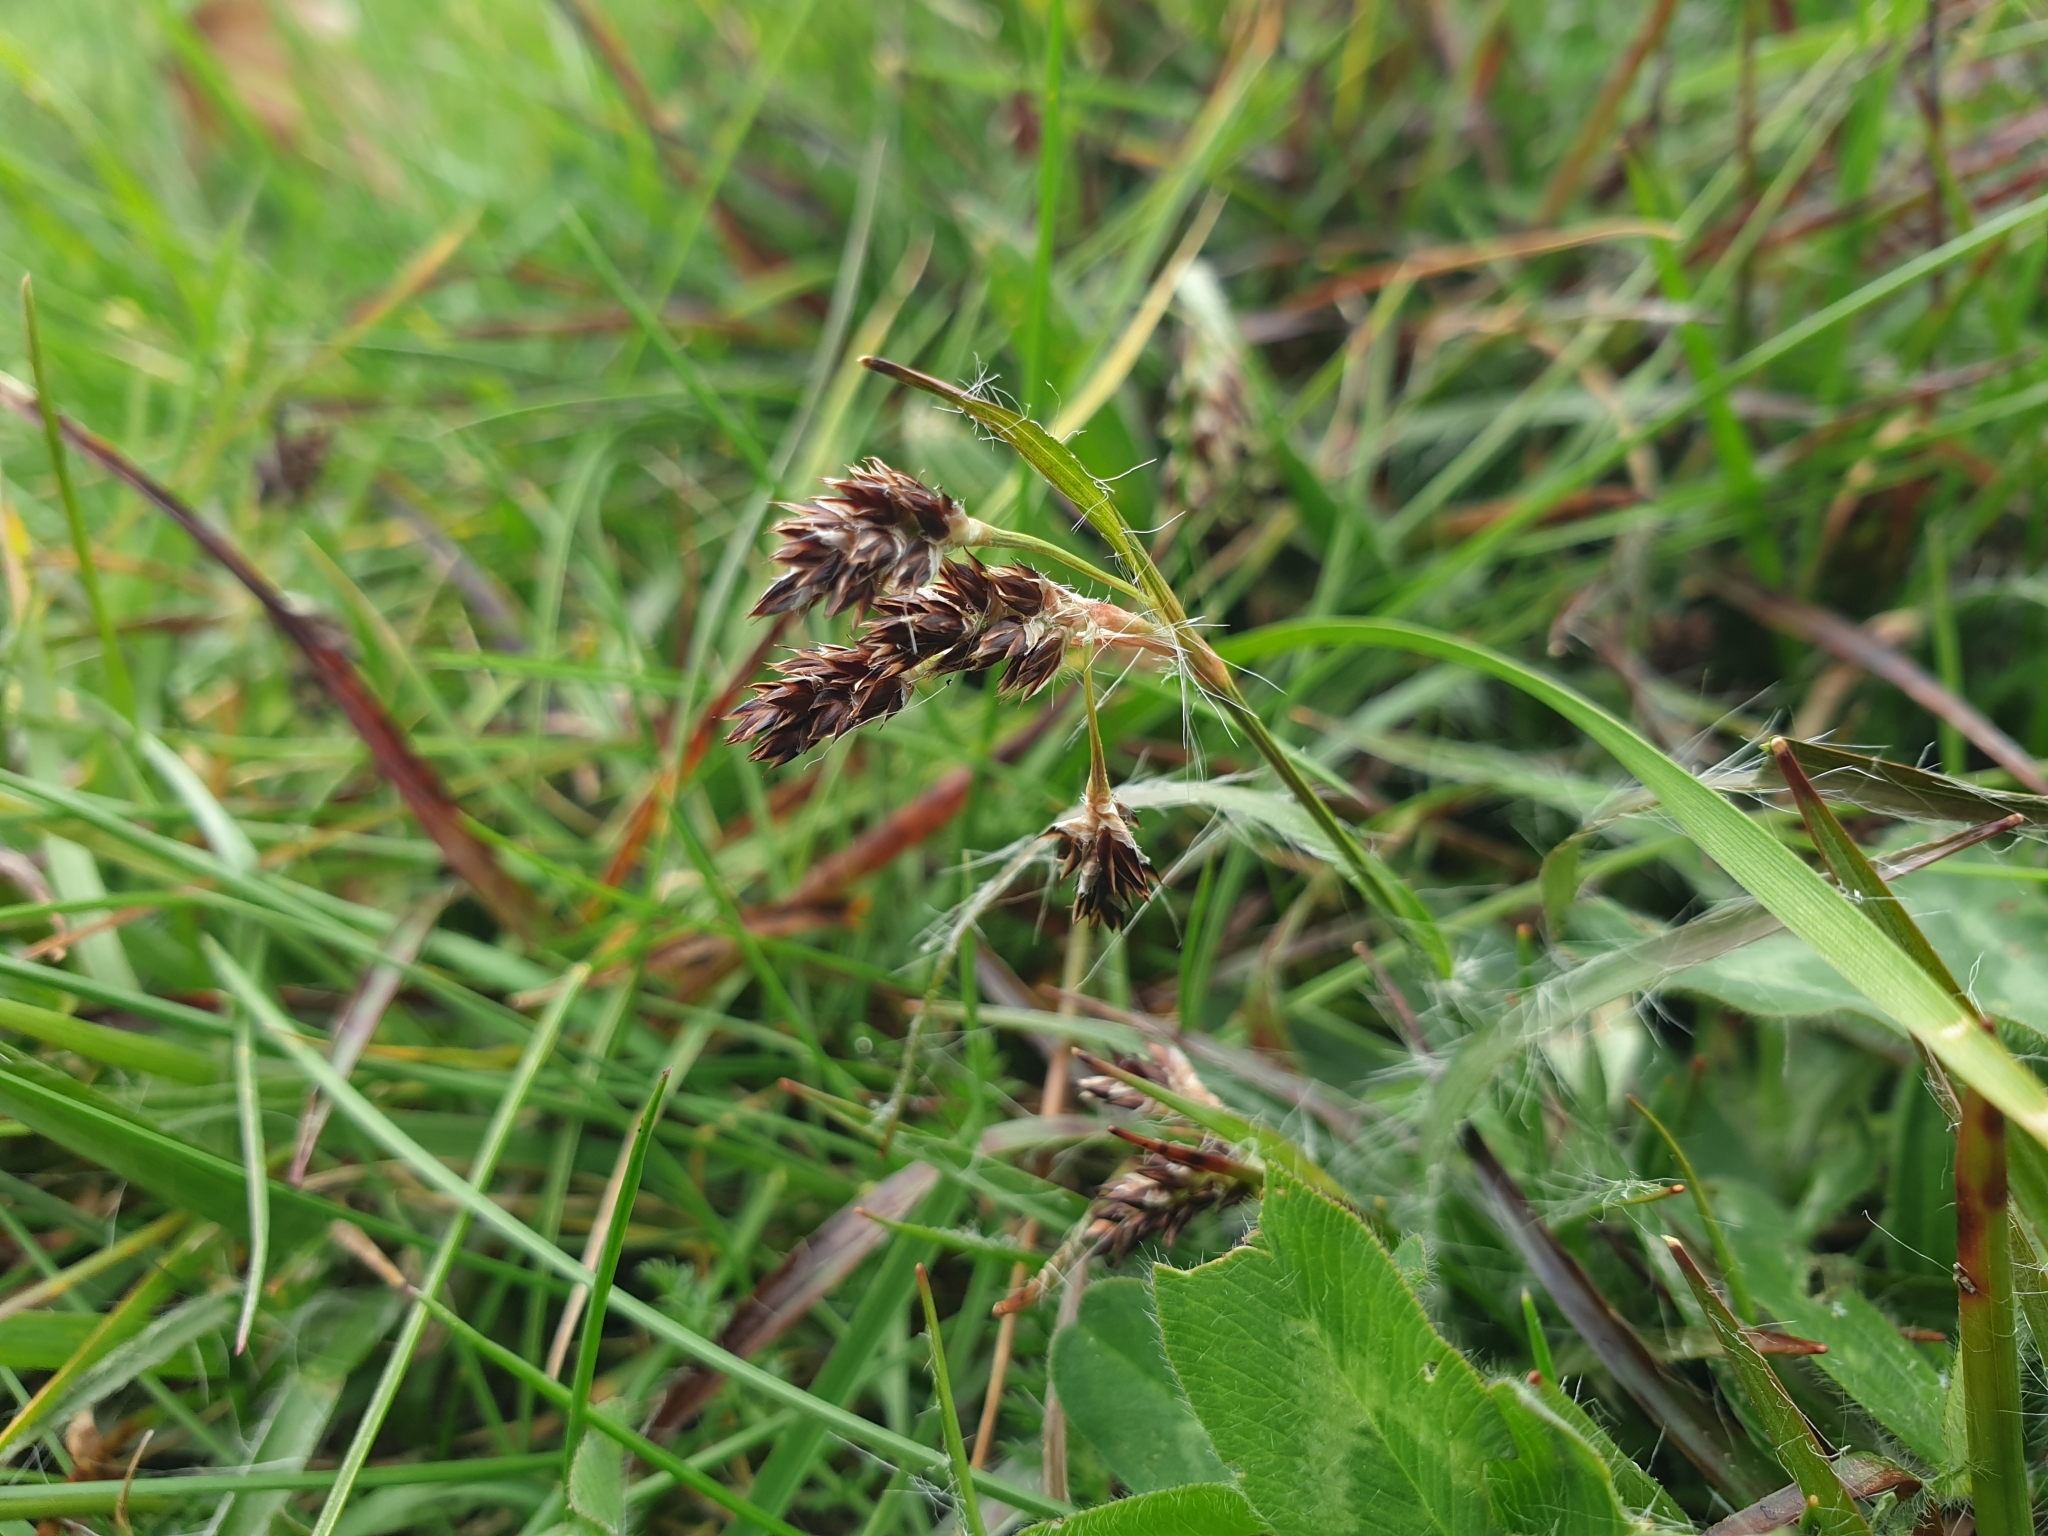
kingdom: Plantae
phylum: Tracheophyta
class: Liliopsida
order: Poales
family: Juncaceae
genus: Luzula
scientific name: Luzula campestris
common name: Field wood-rush
